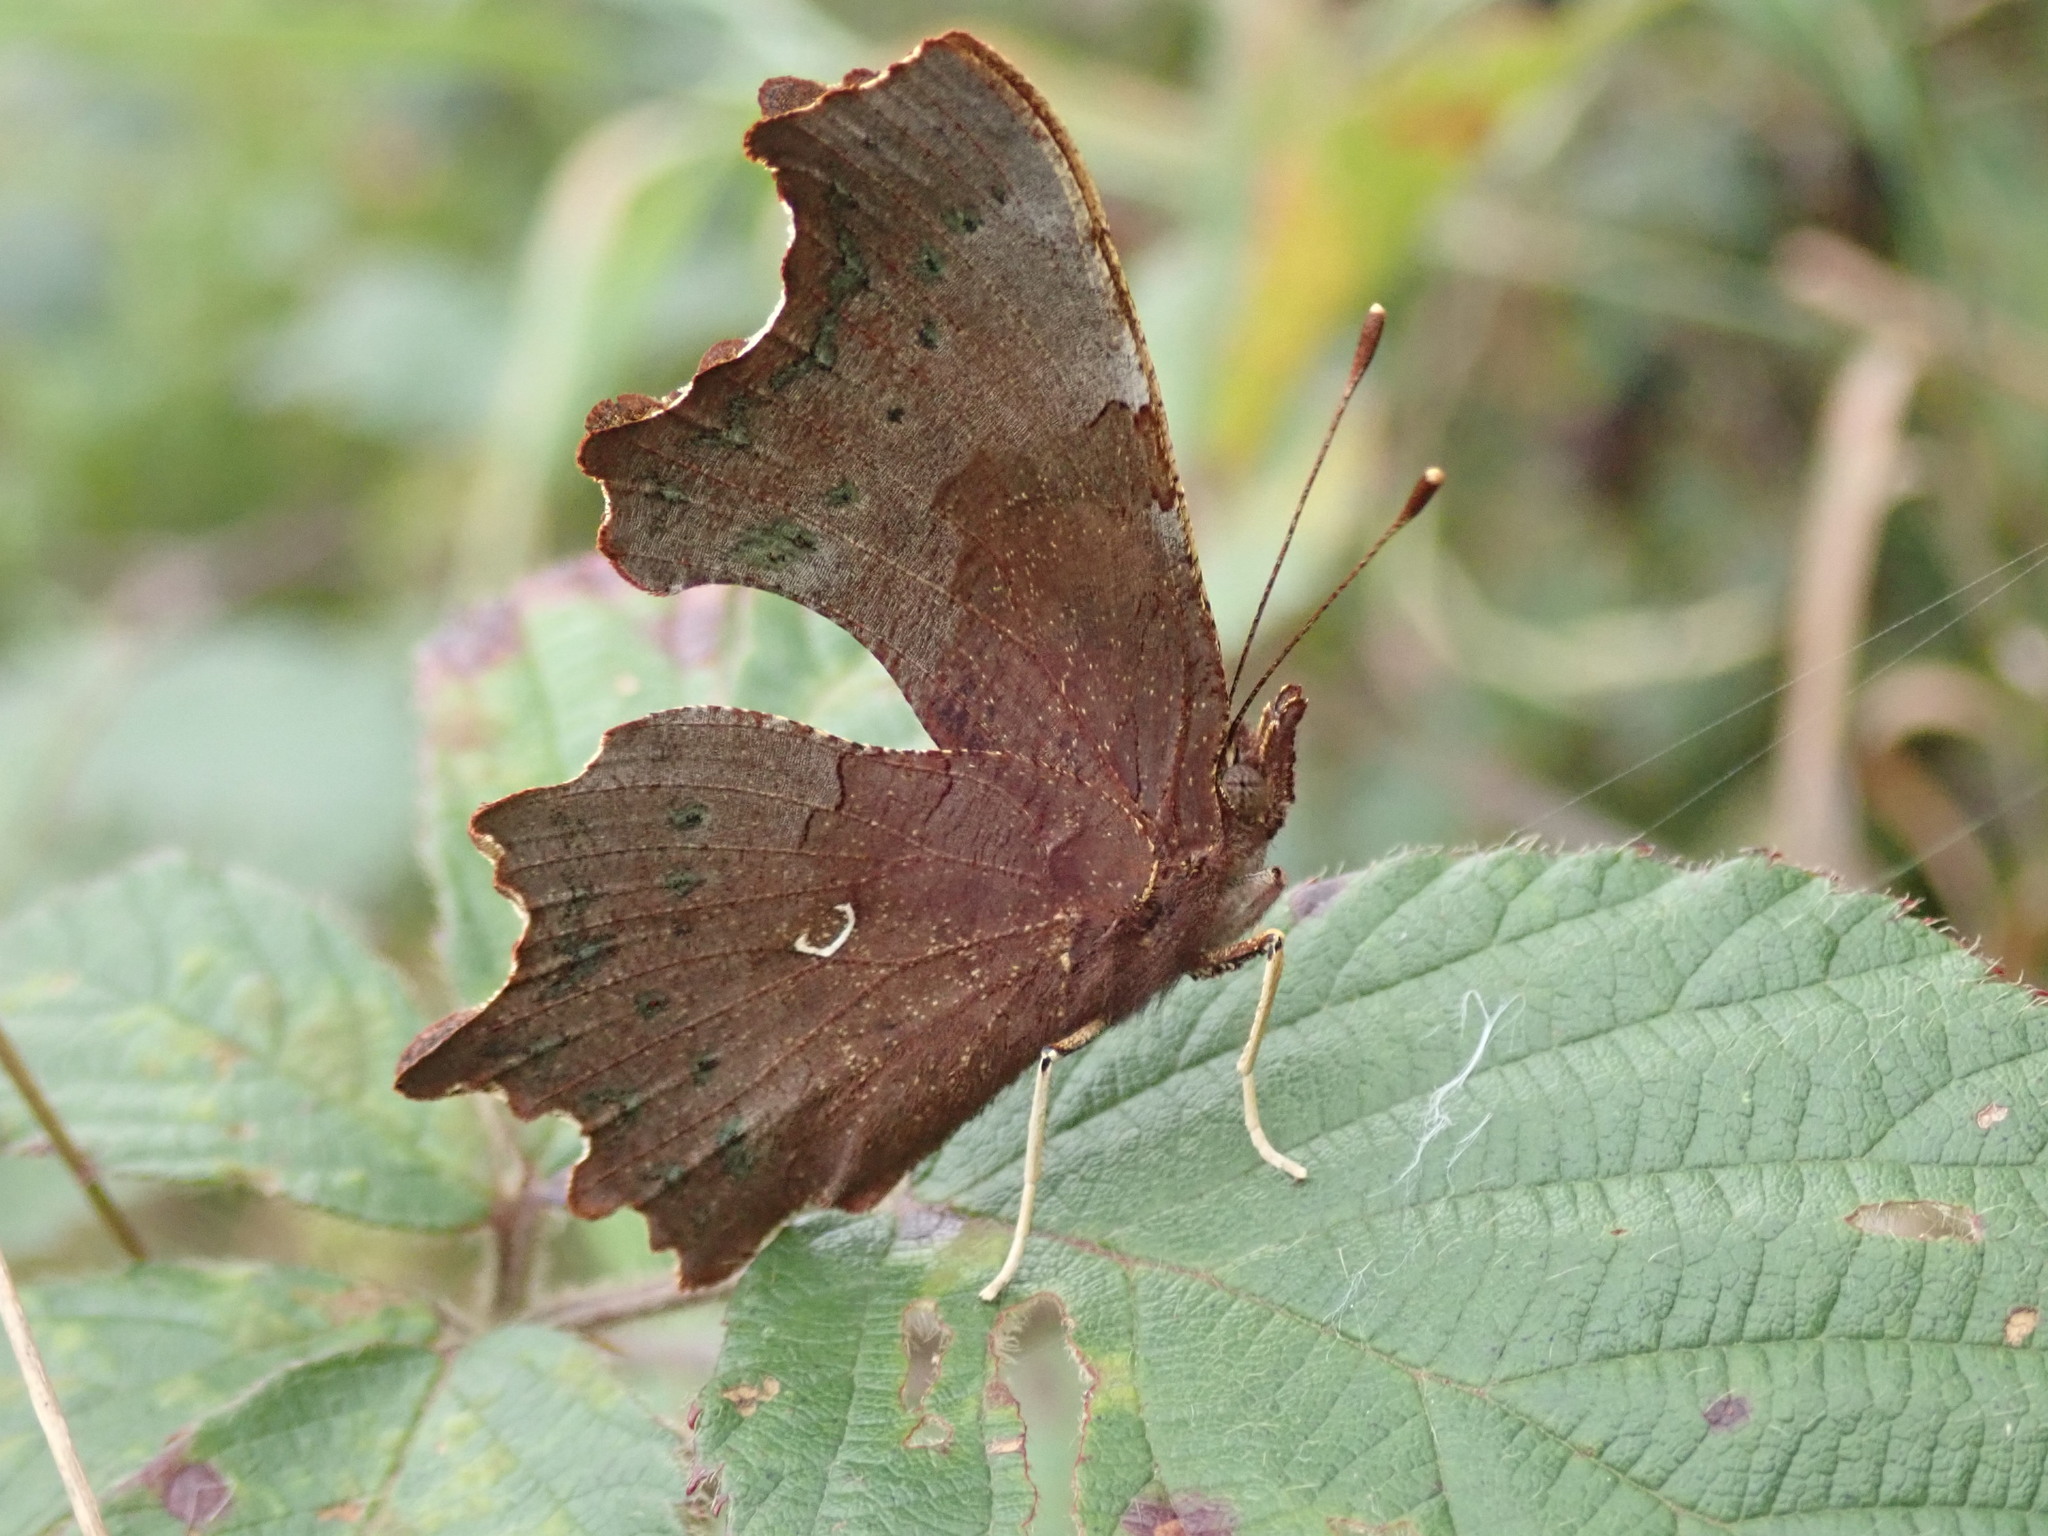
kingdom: Animalia
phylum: Arthropoda
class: Insecta
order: Lepidoptera
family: Nymphalidae
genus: Polygonia
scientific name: Polygonia c-album
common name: Comma
